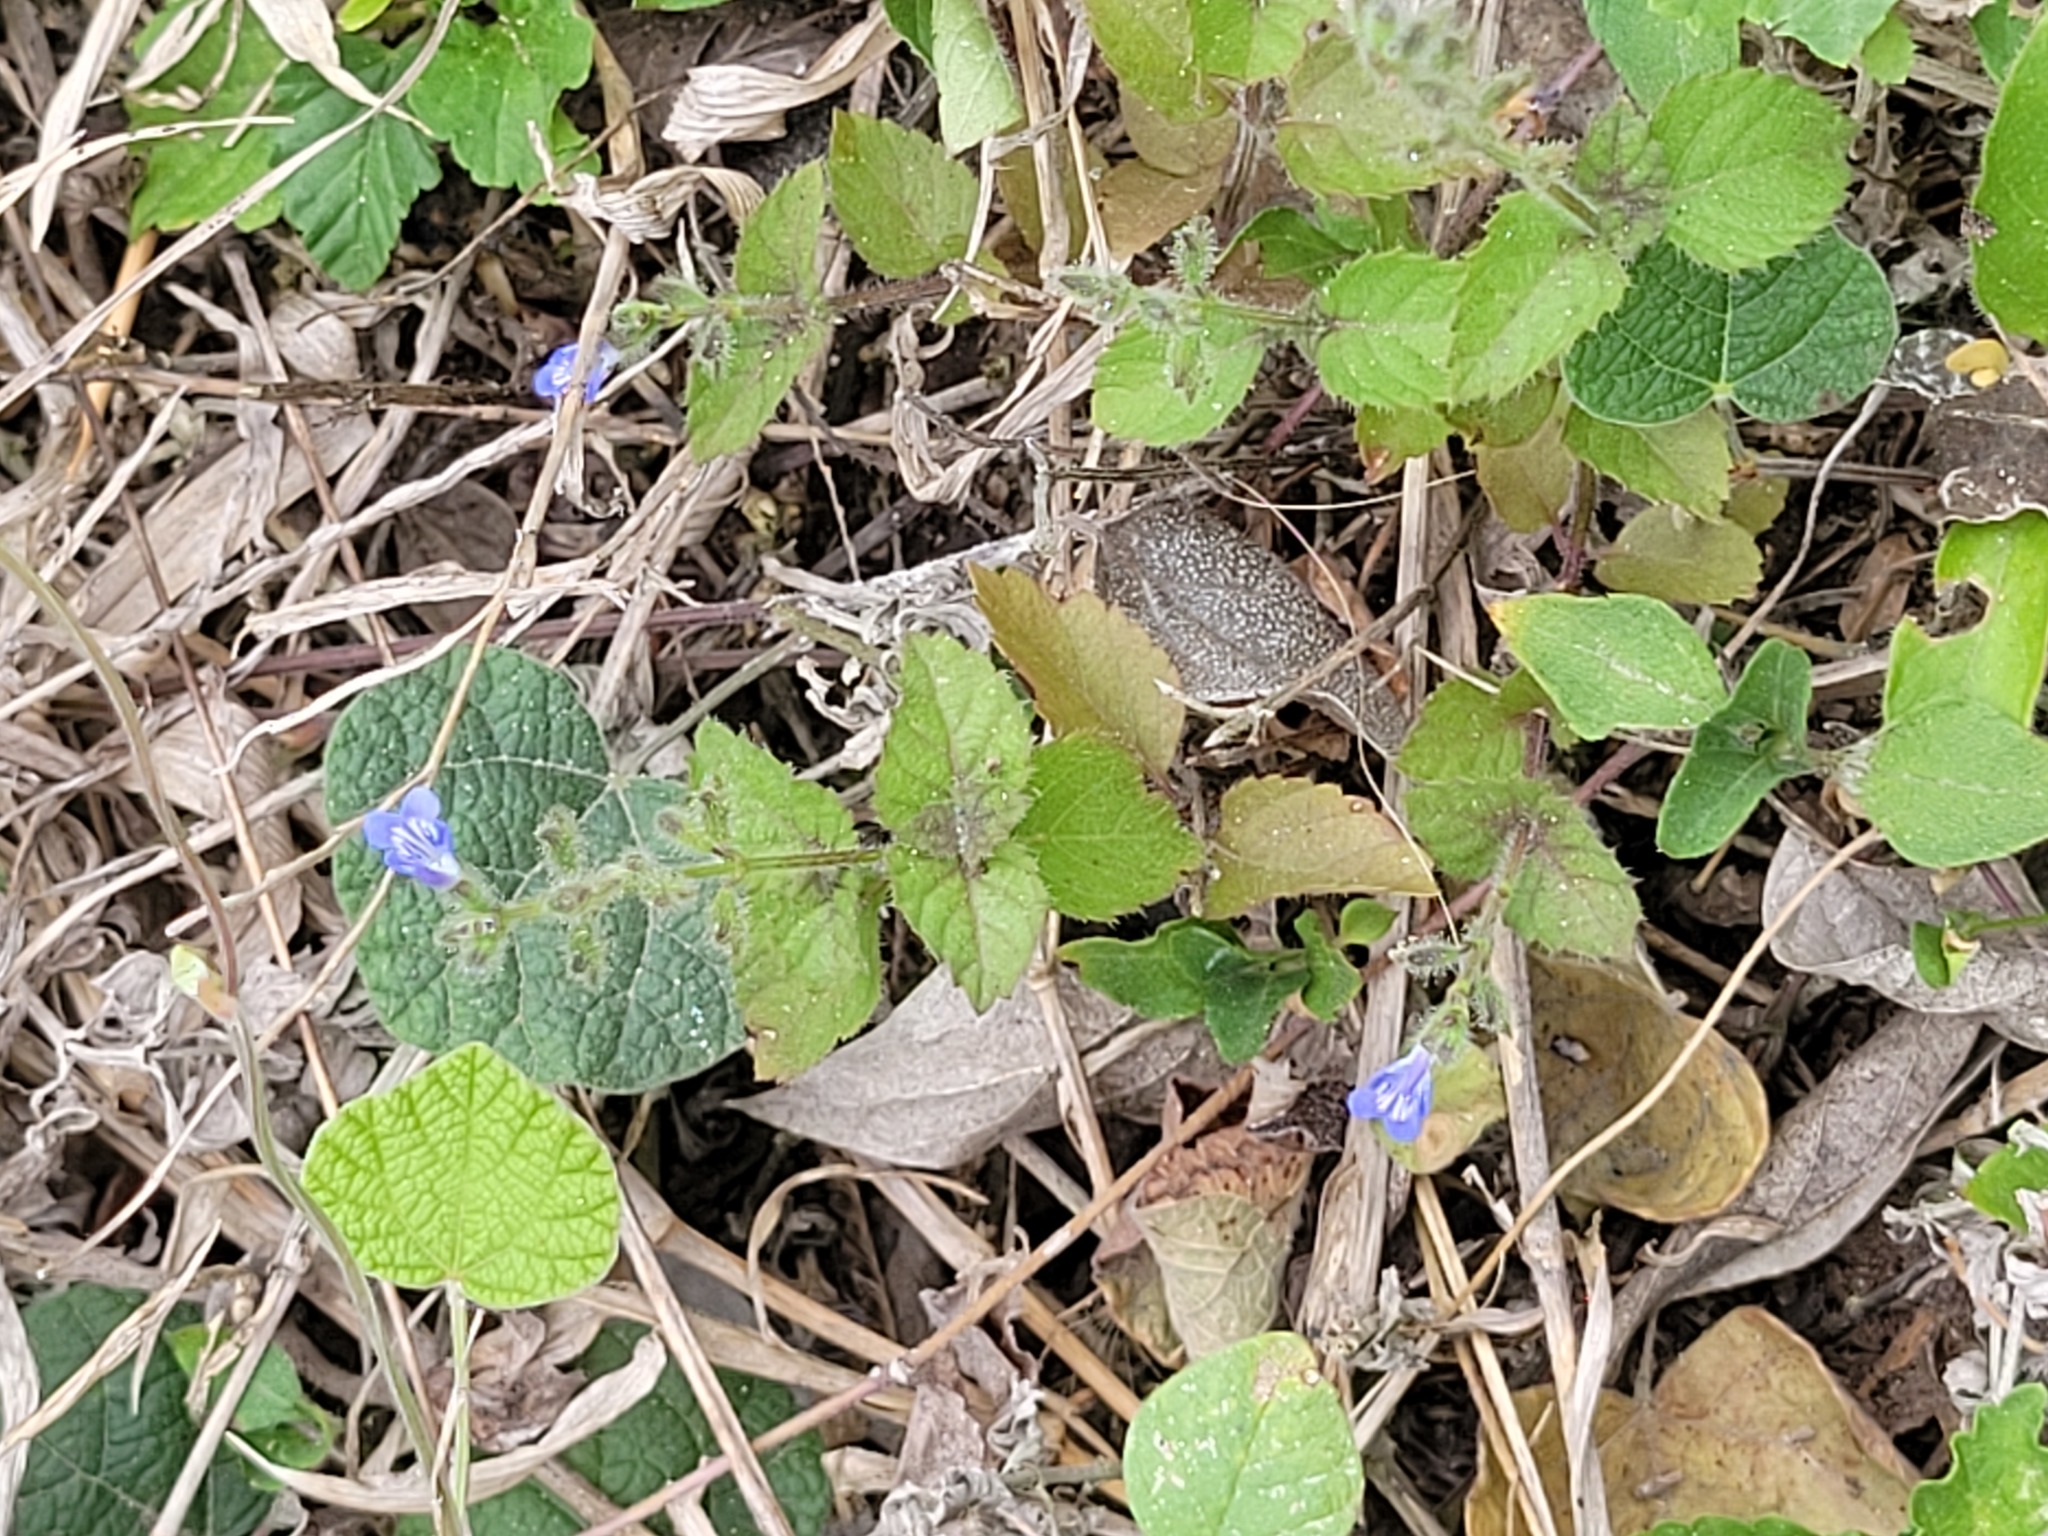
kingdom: Plantae
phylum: Tracheophyta
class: Magnoliopsida
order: Lamiales
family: Lamiaceae
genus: Salvia
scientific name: Salvia misella
